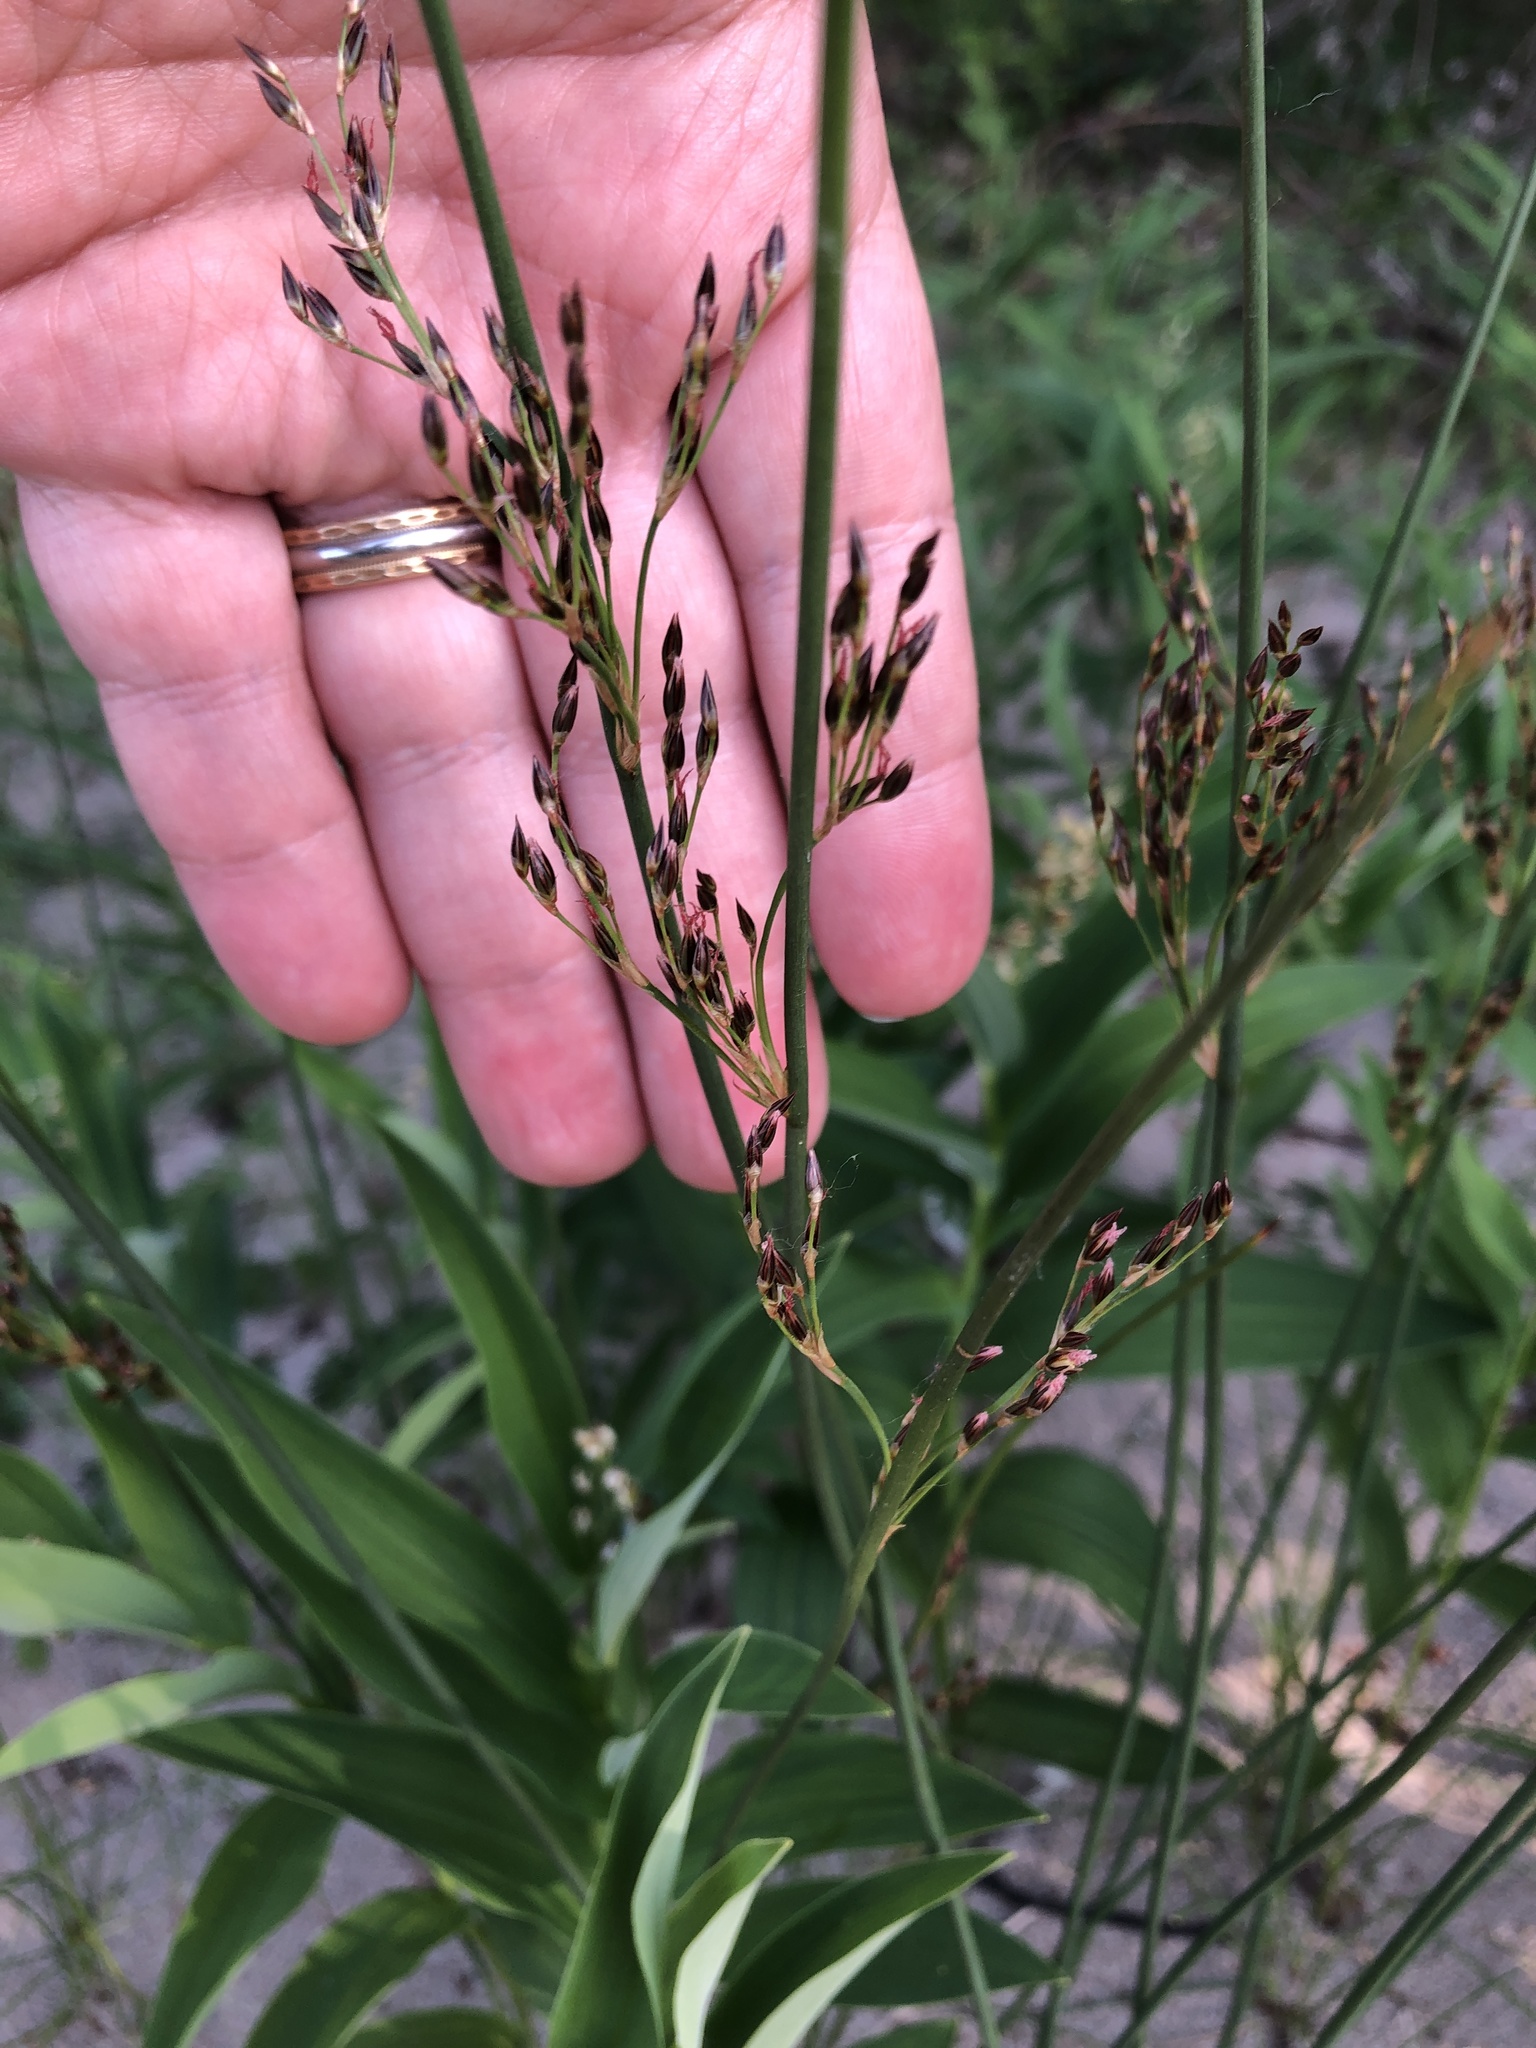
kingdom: Plantae
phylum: Tracheophyta
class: Liliopsida
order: Poales
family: Juncaceae
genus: Juncus
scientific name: Juncus balticus
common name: Baltic rush
